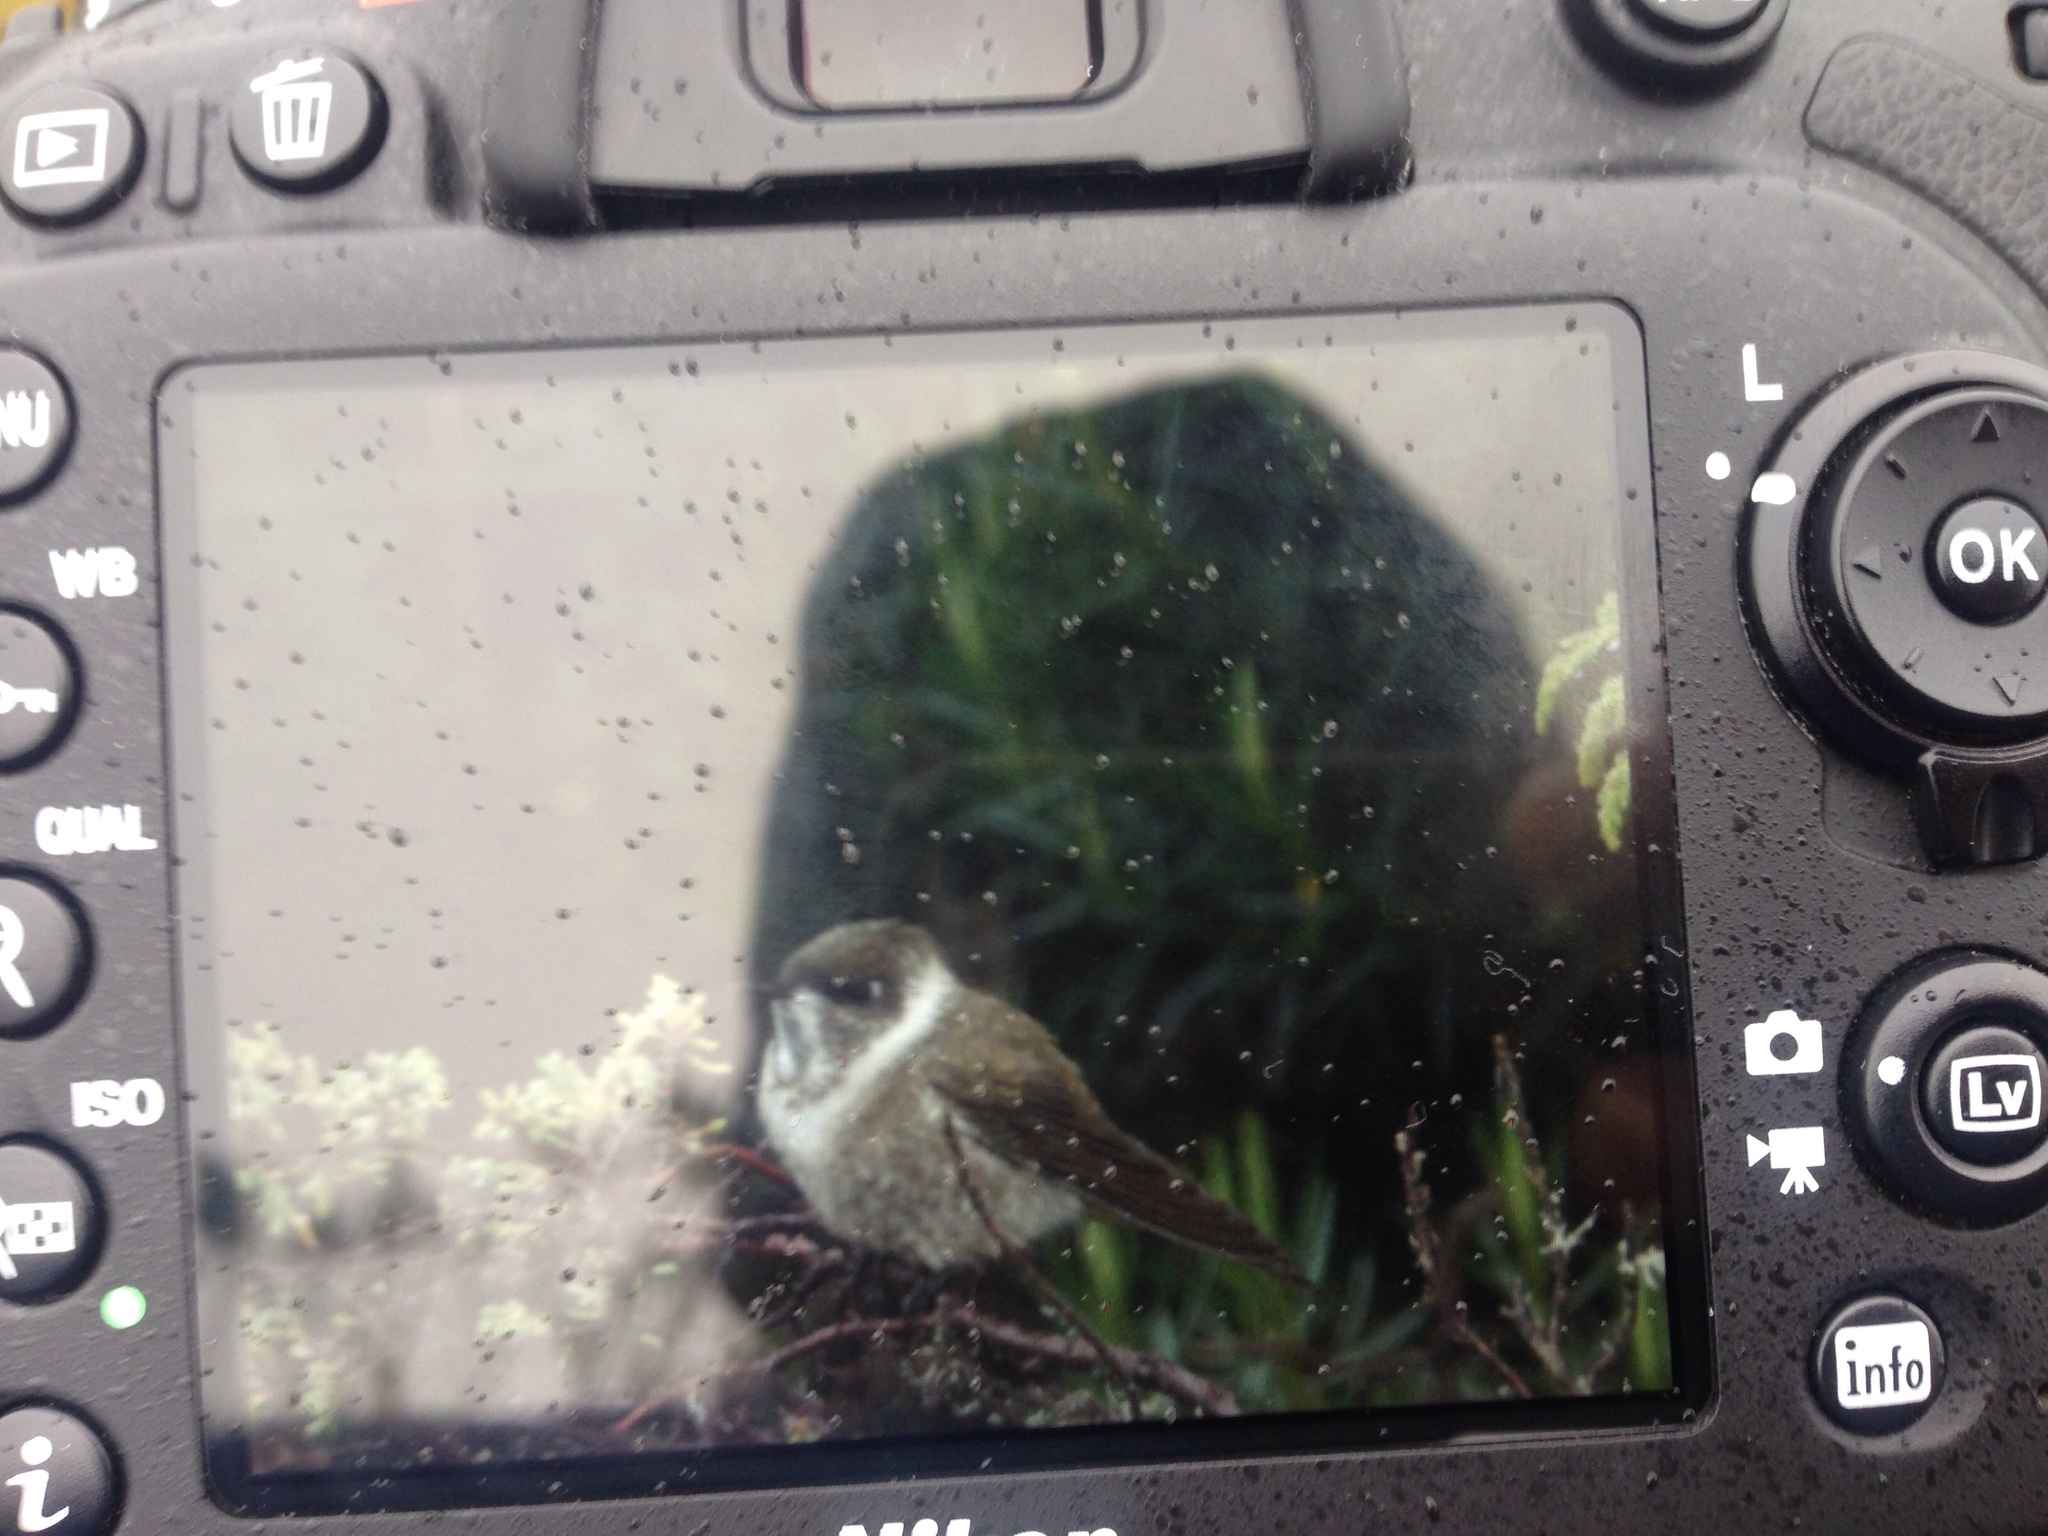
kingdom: Animalia
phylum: Chordata
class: Aves
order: Apodiformes
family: Trochilidae
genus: Oxypogon
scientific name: Oxypogon guerinii
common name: Bearded helmetcrest
